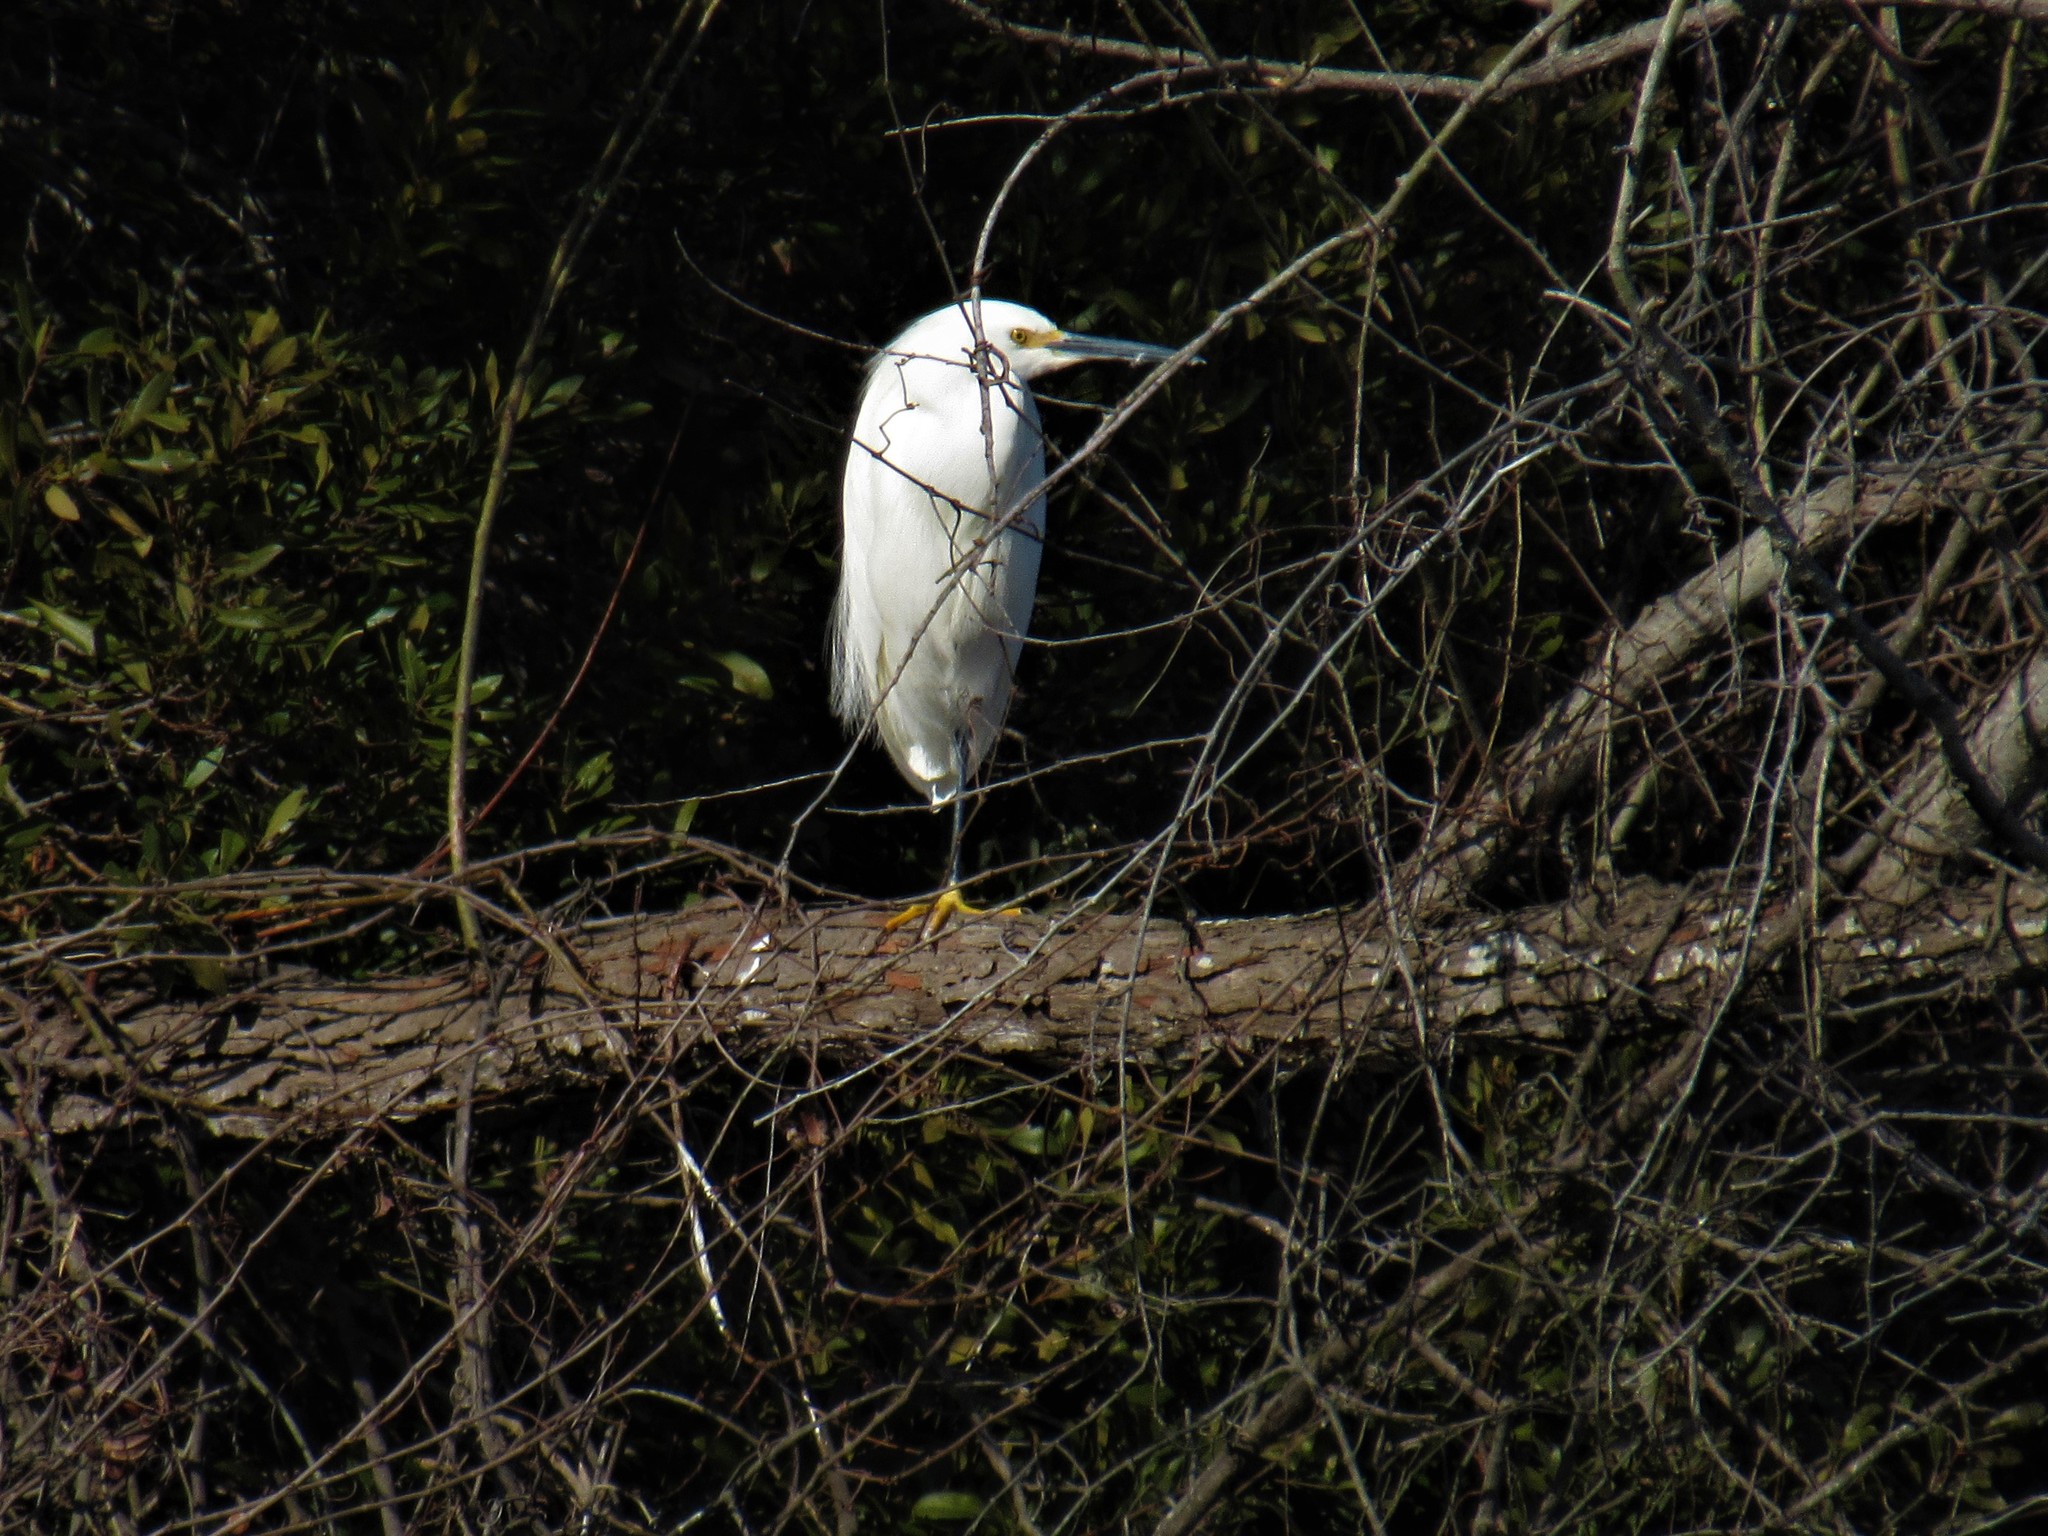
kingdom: Animalia
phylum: Chordata
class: Aves
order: Pelecaniformes
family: Ardeidae
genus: Egretta
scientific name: Egretta thula
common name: Snowy egret
